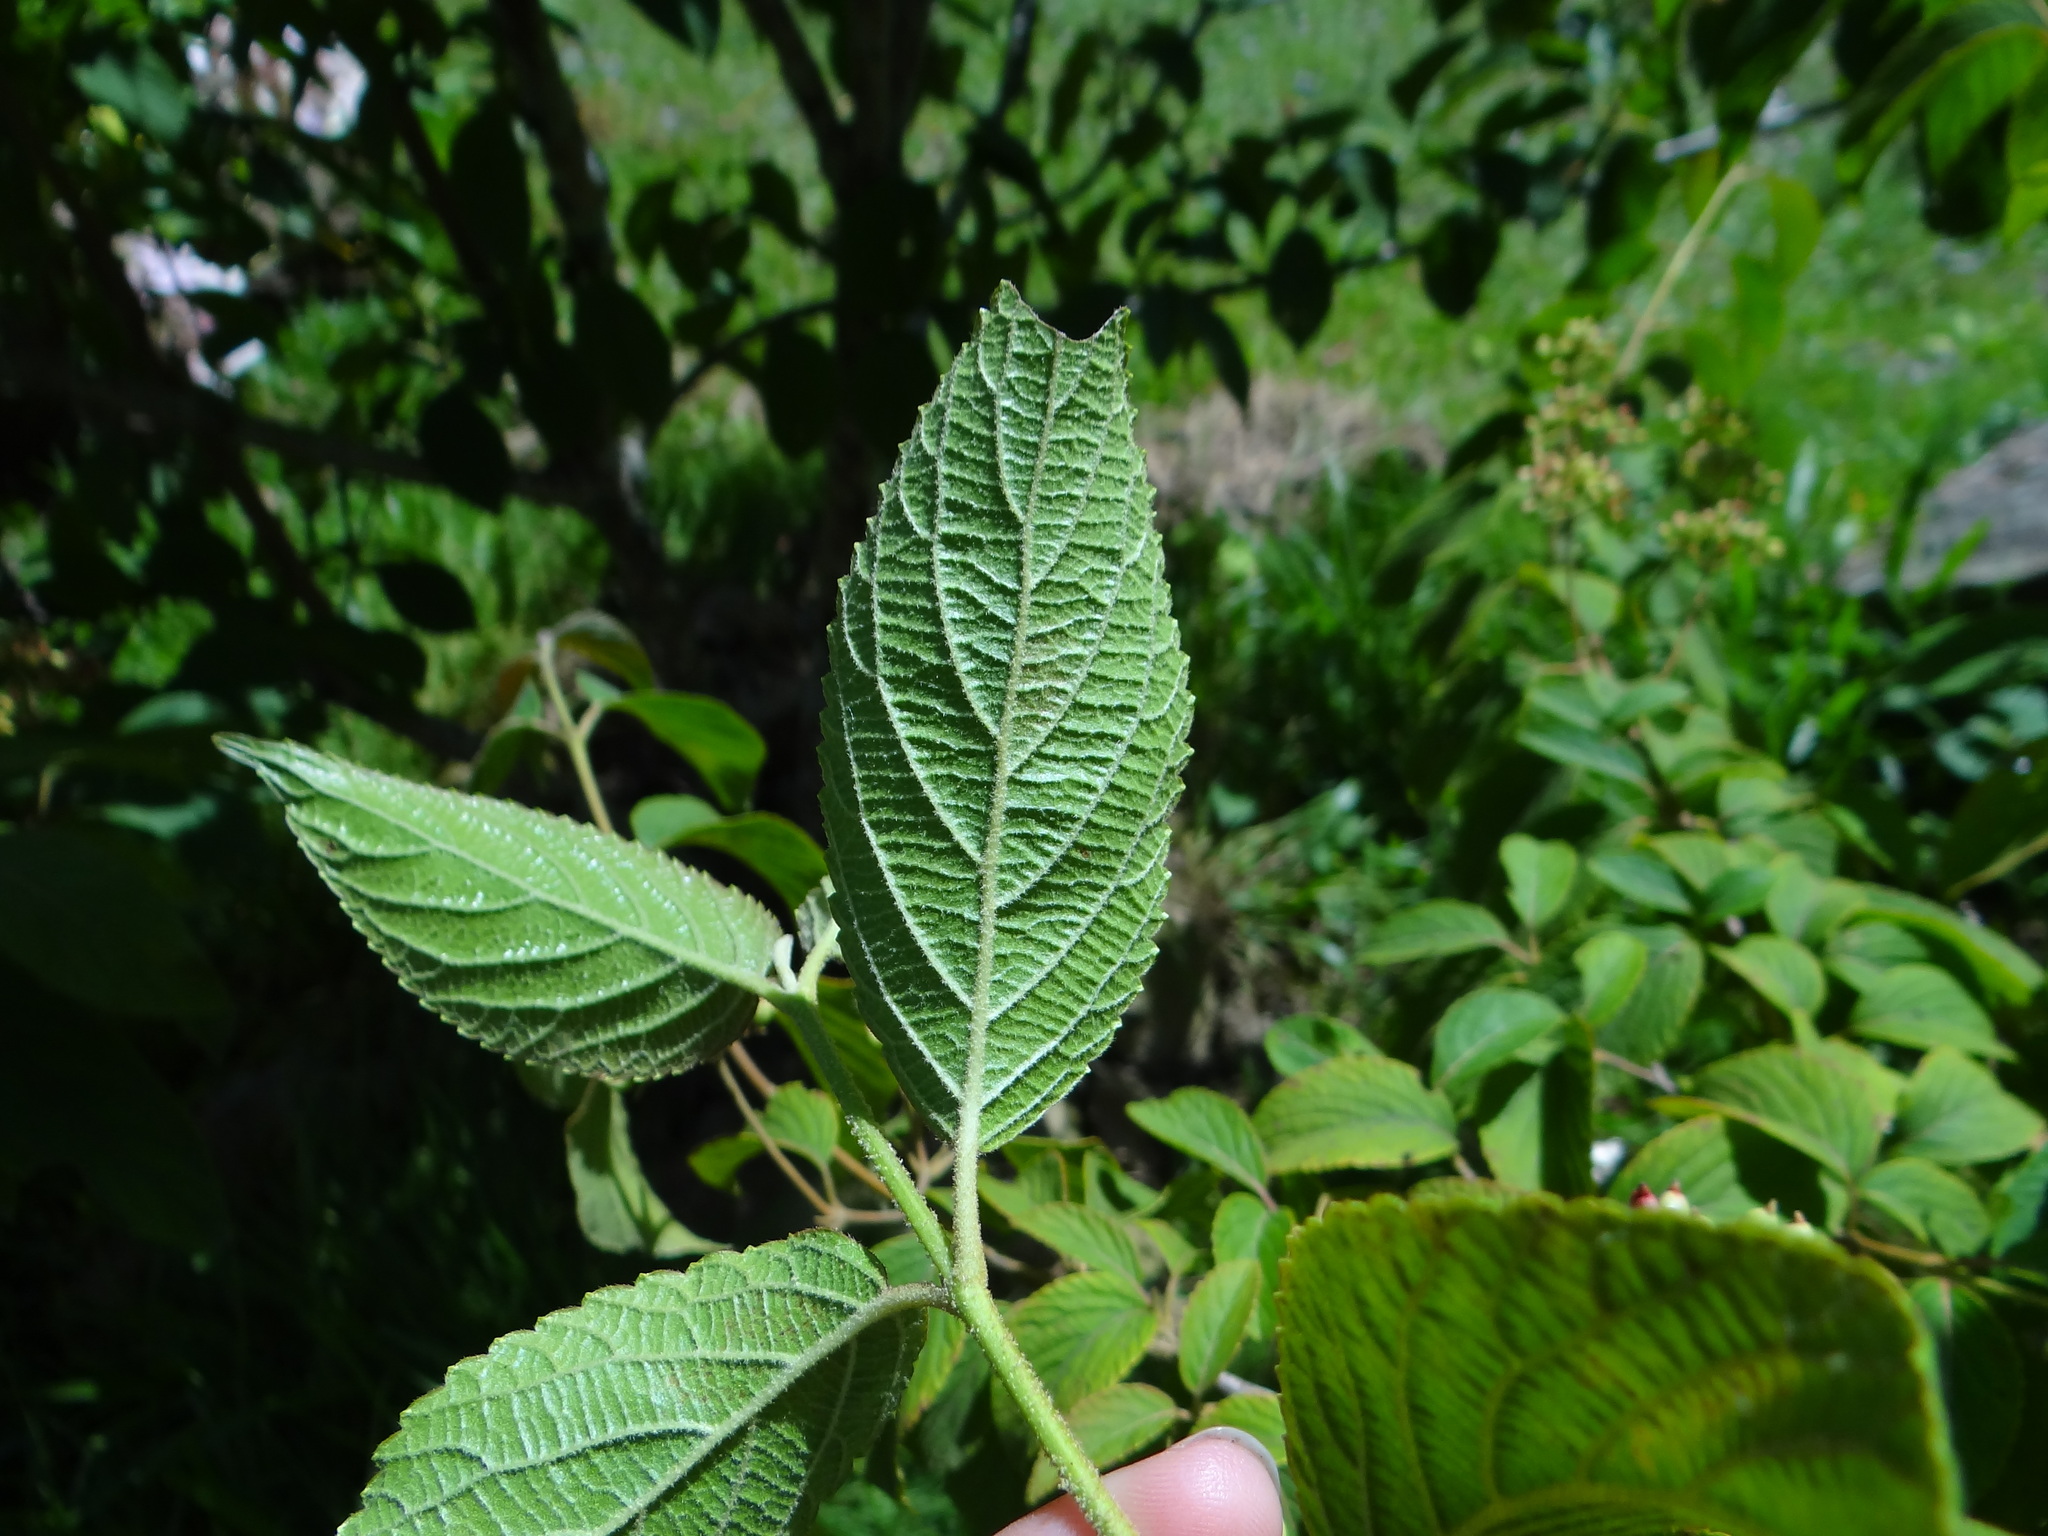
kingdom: Plantae
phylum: Tracheophyta
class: Magnoliopsida
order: Dipsacales
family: Viburnaceae
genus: Viburnum
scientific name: Viburnum plicatum
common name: Japanese snowball
